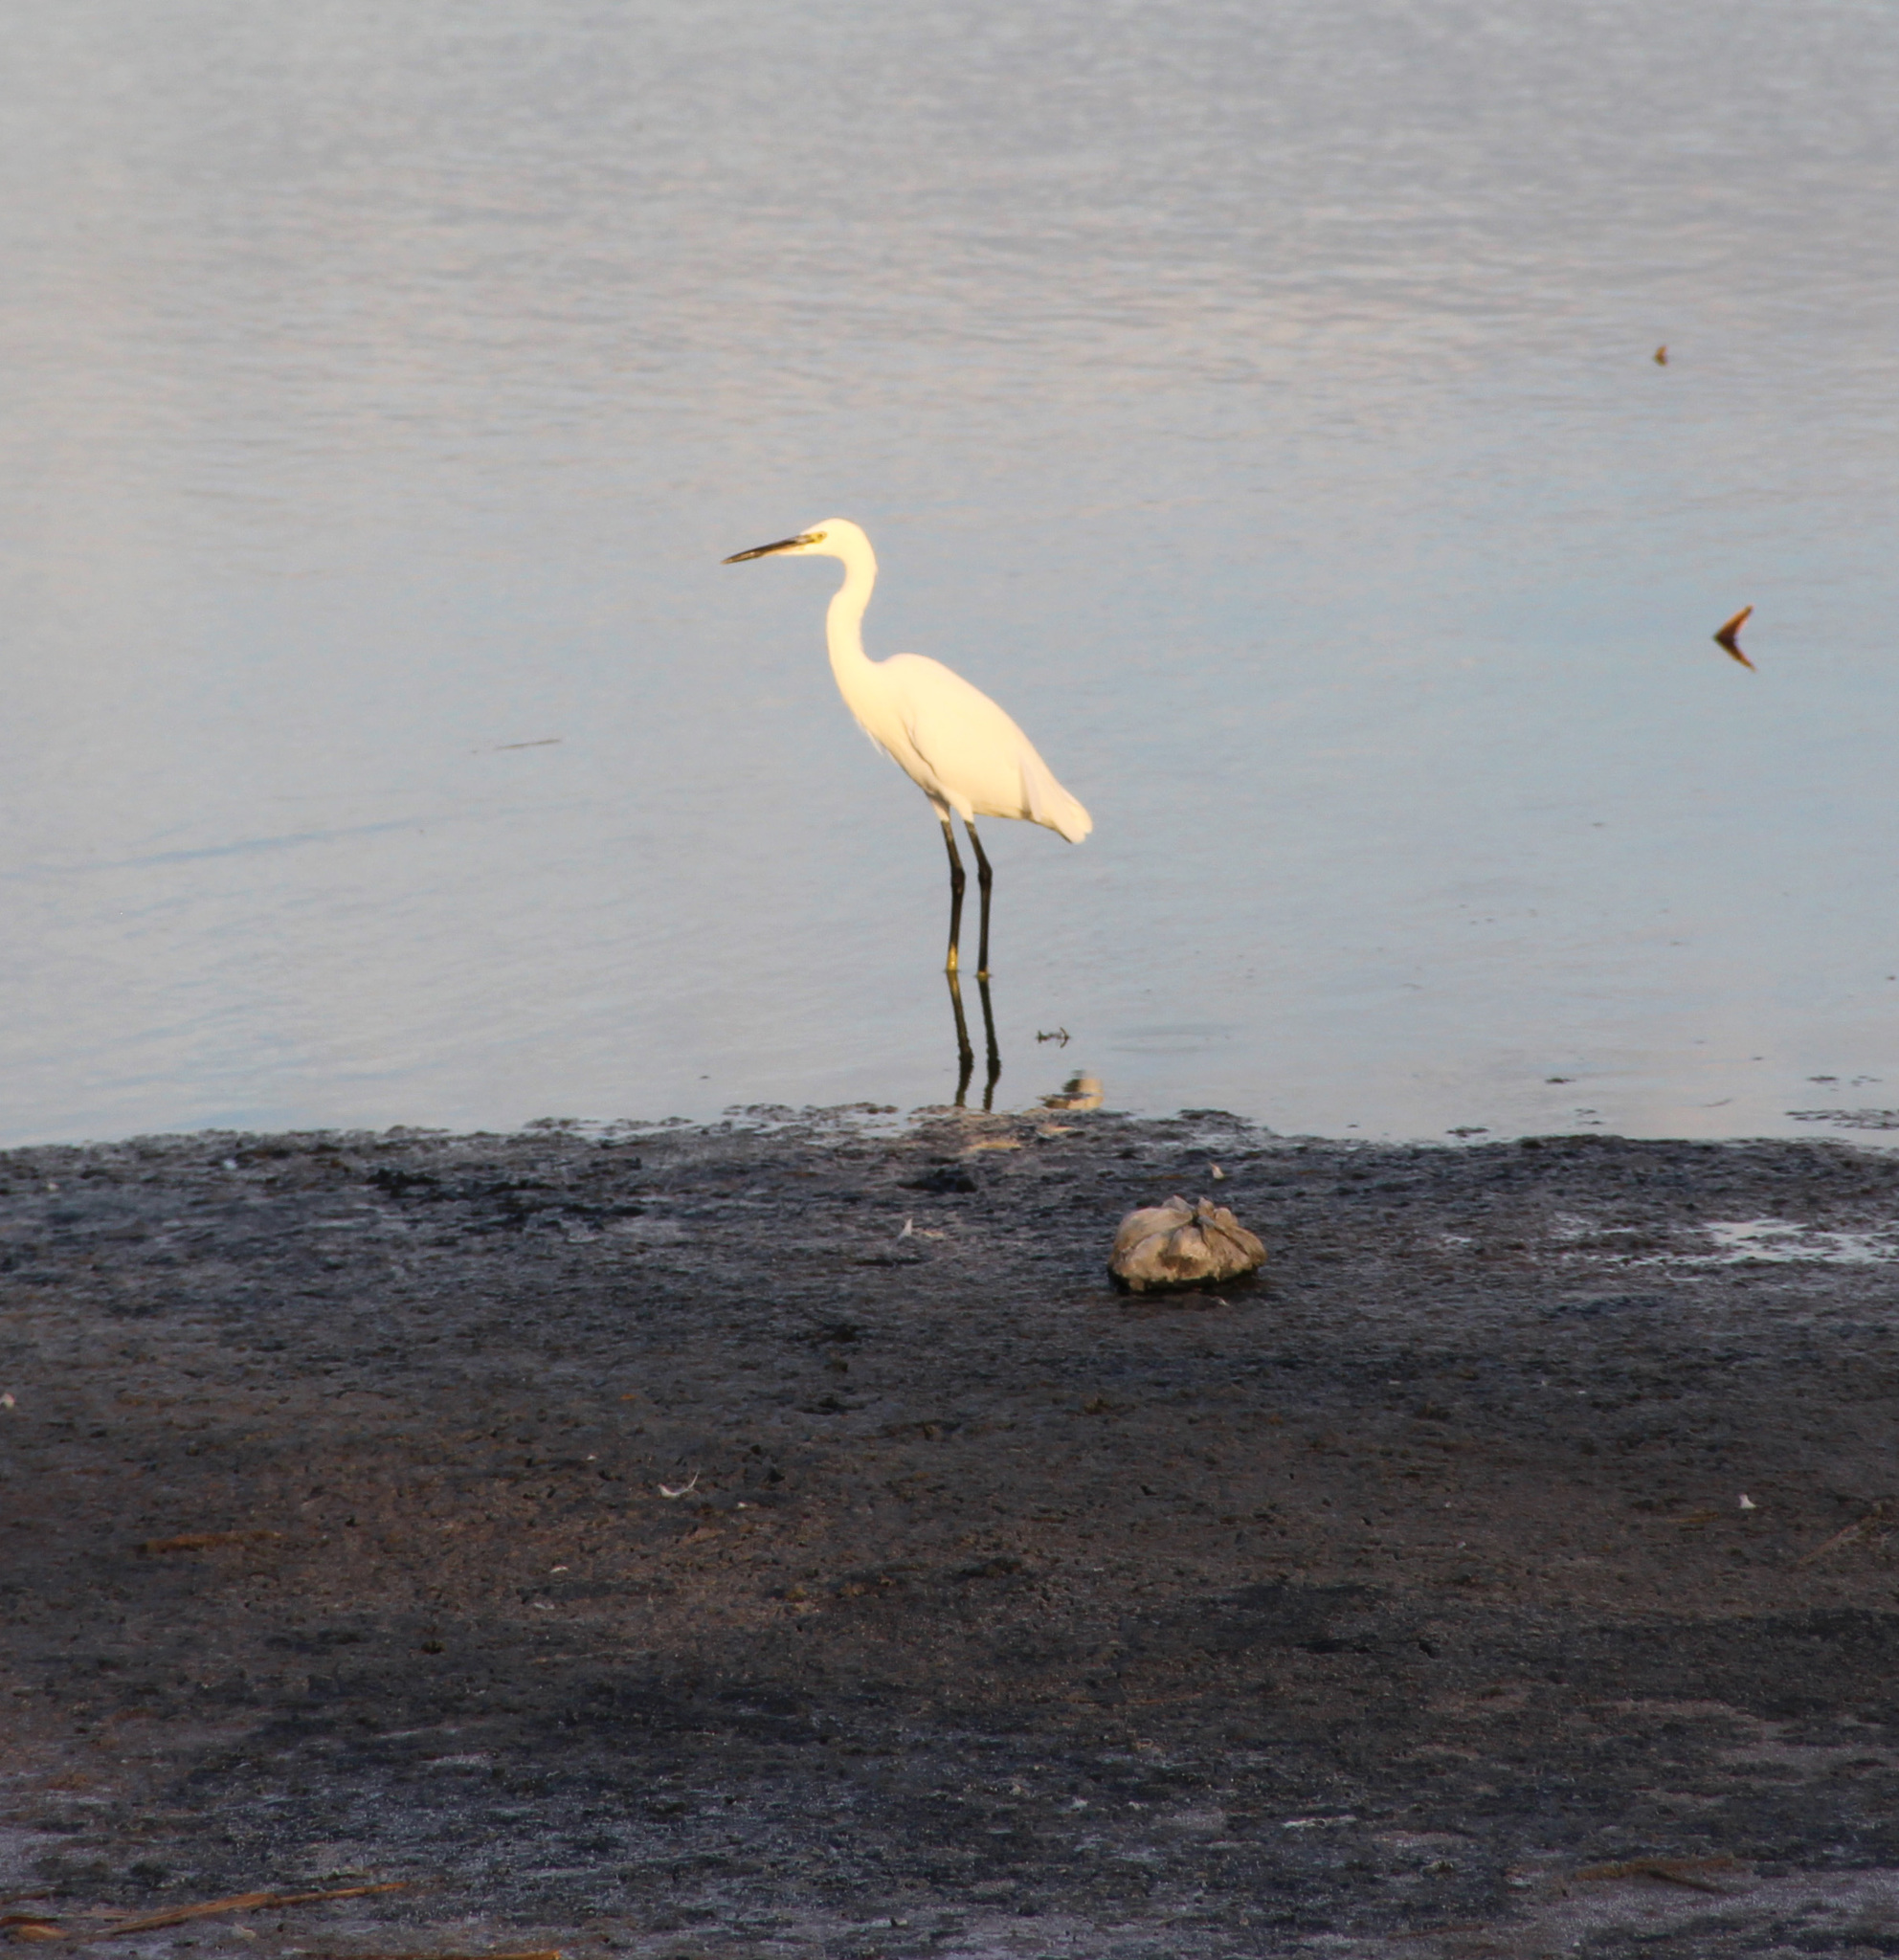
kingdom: Animalia
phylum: Chordata
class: Aves
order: Pelecaniformes
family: Ardeidae
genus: Egretta
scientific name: Egretta garzetta
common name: Little egret
